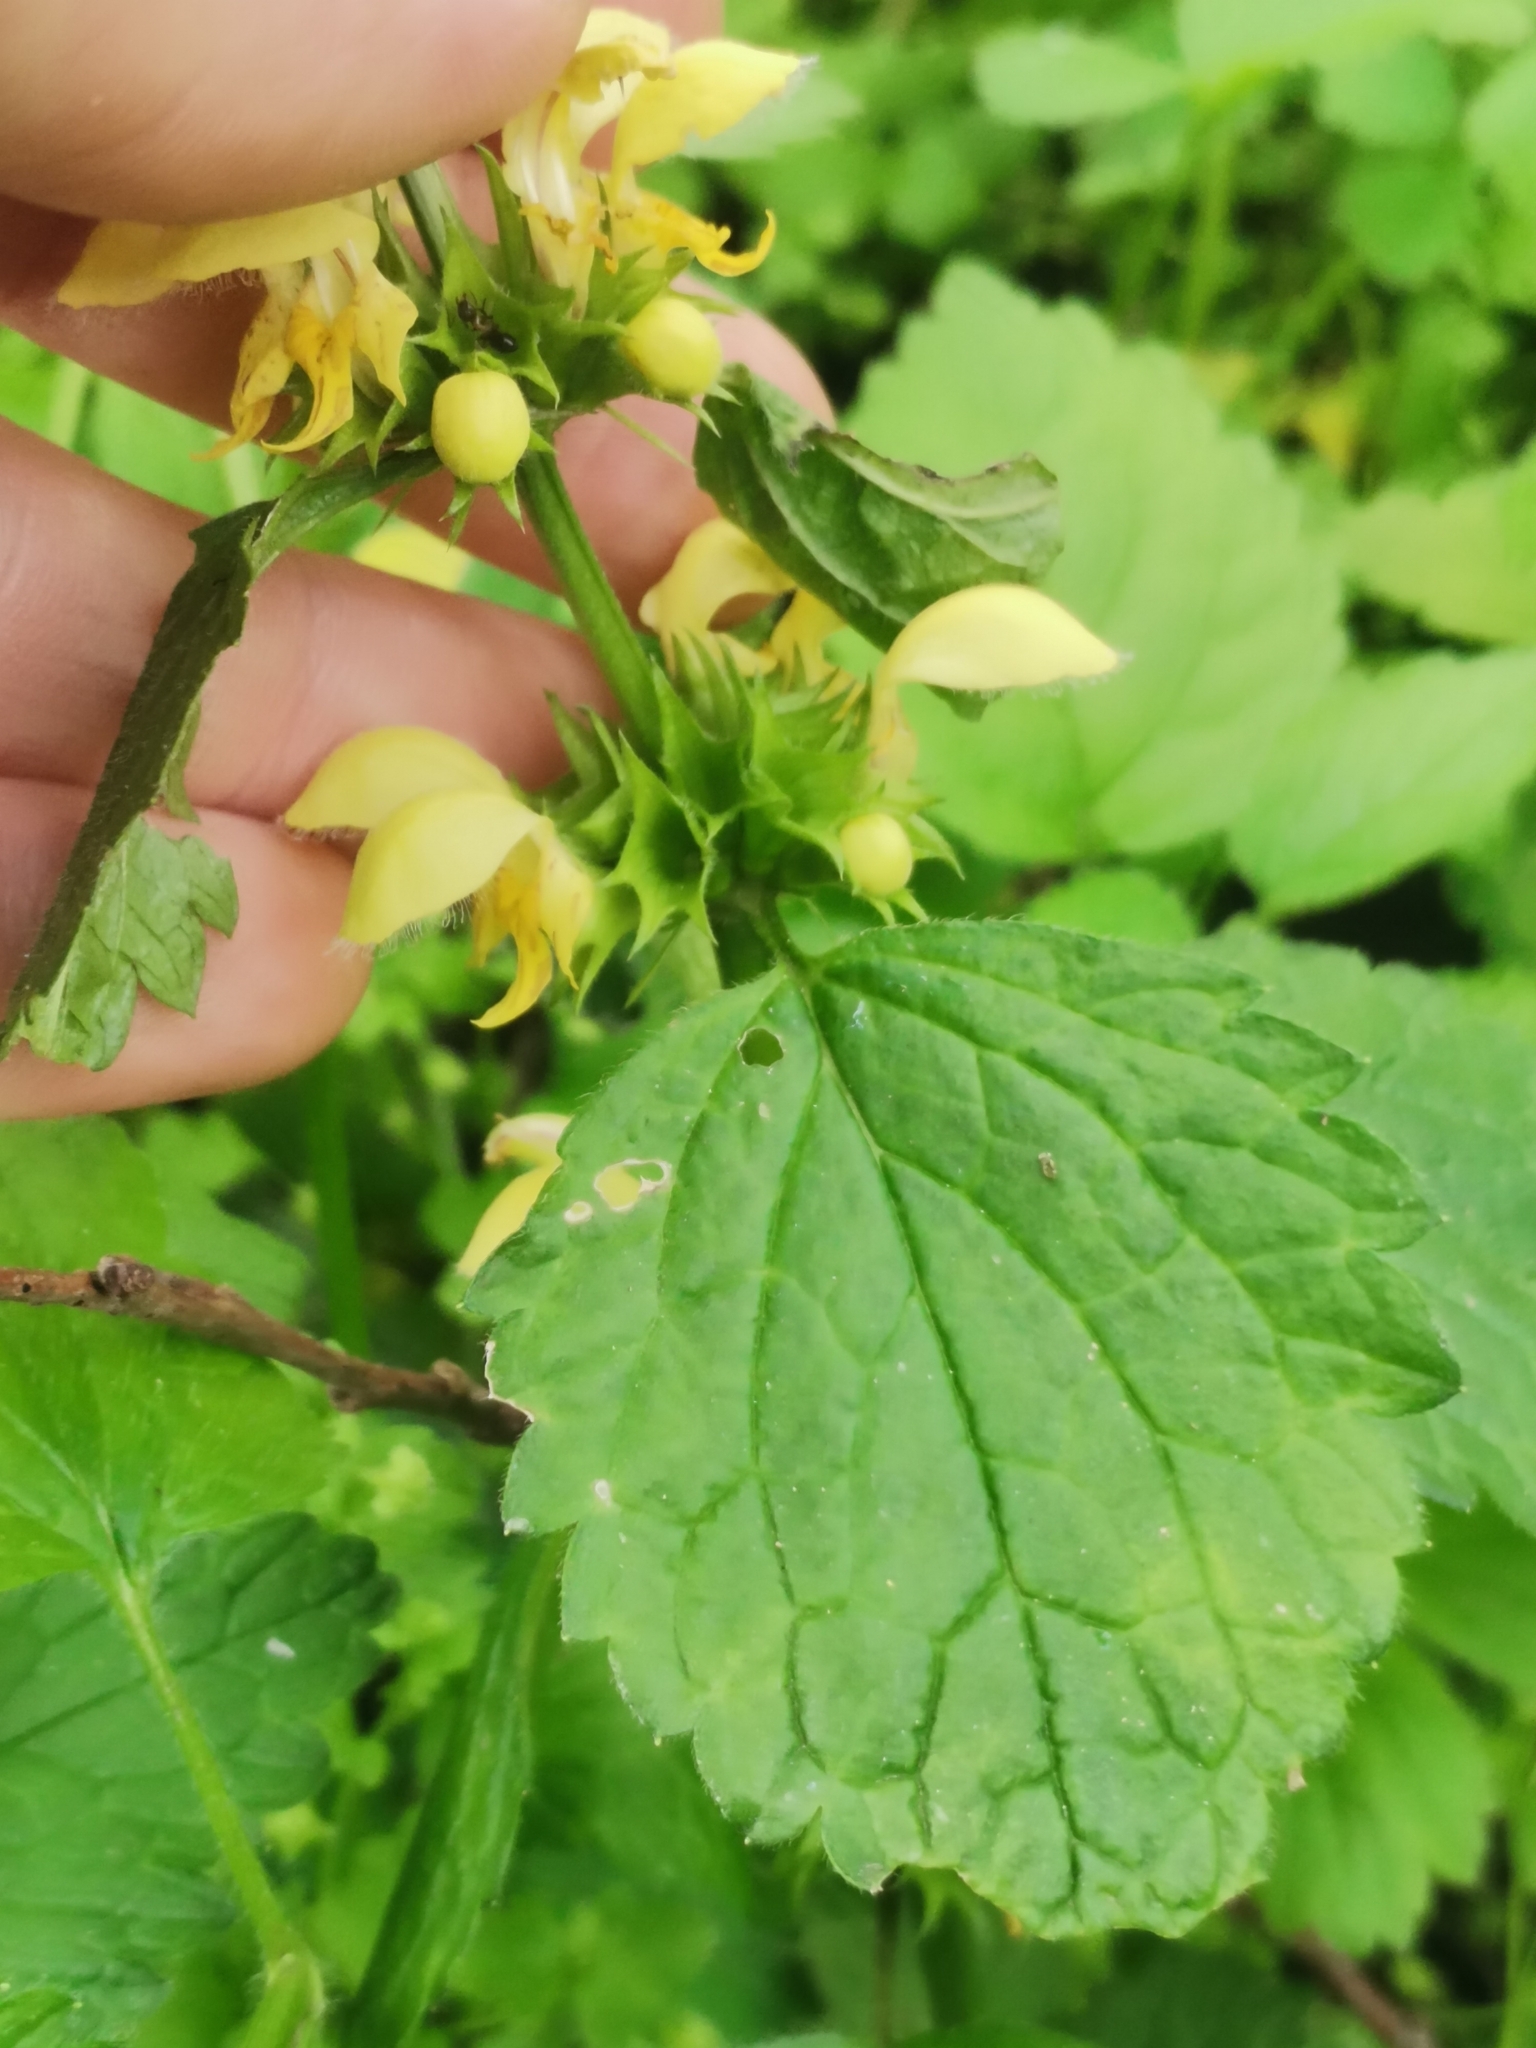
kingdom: Plantae
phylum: Tracheophyta
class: Magnoliopsida
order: Lamiales
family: Lamiaceae
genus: Lamium
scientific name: Lamium galeobdolon
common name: Yellow archangel
